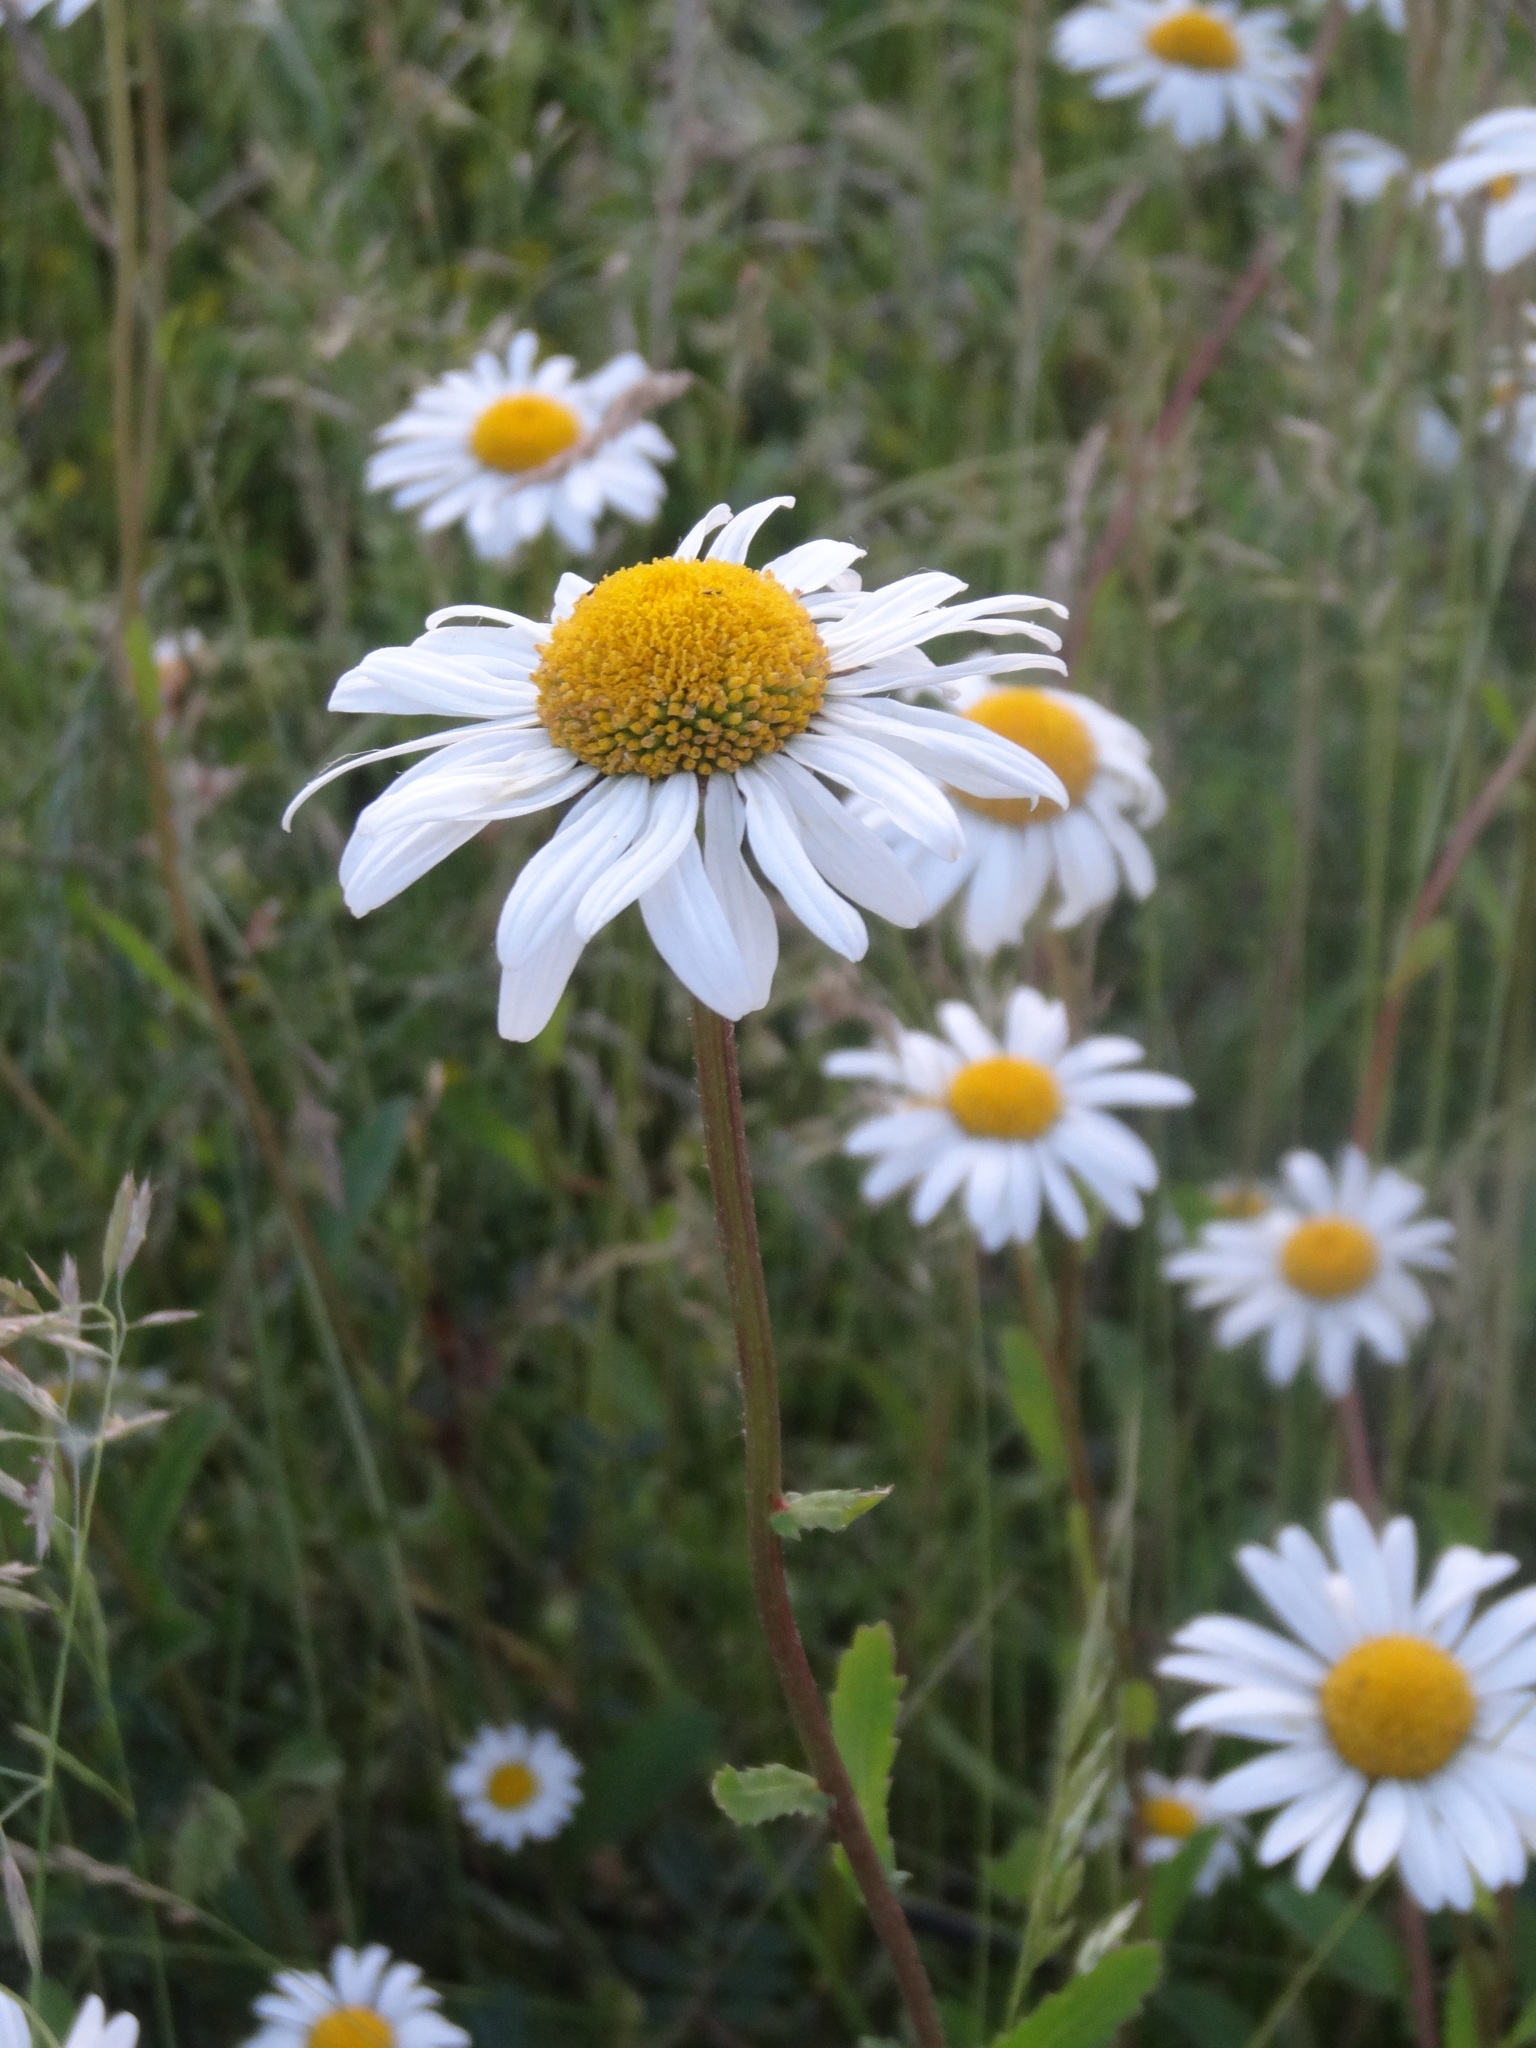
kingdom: Plantae
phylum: Tracheophyta
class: Magnoliopsida
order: Asterales
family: Asteraceae
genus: Leucanthemum
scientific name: Leucanthemum vulgare
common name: Oxeye daisy
